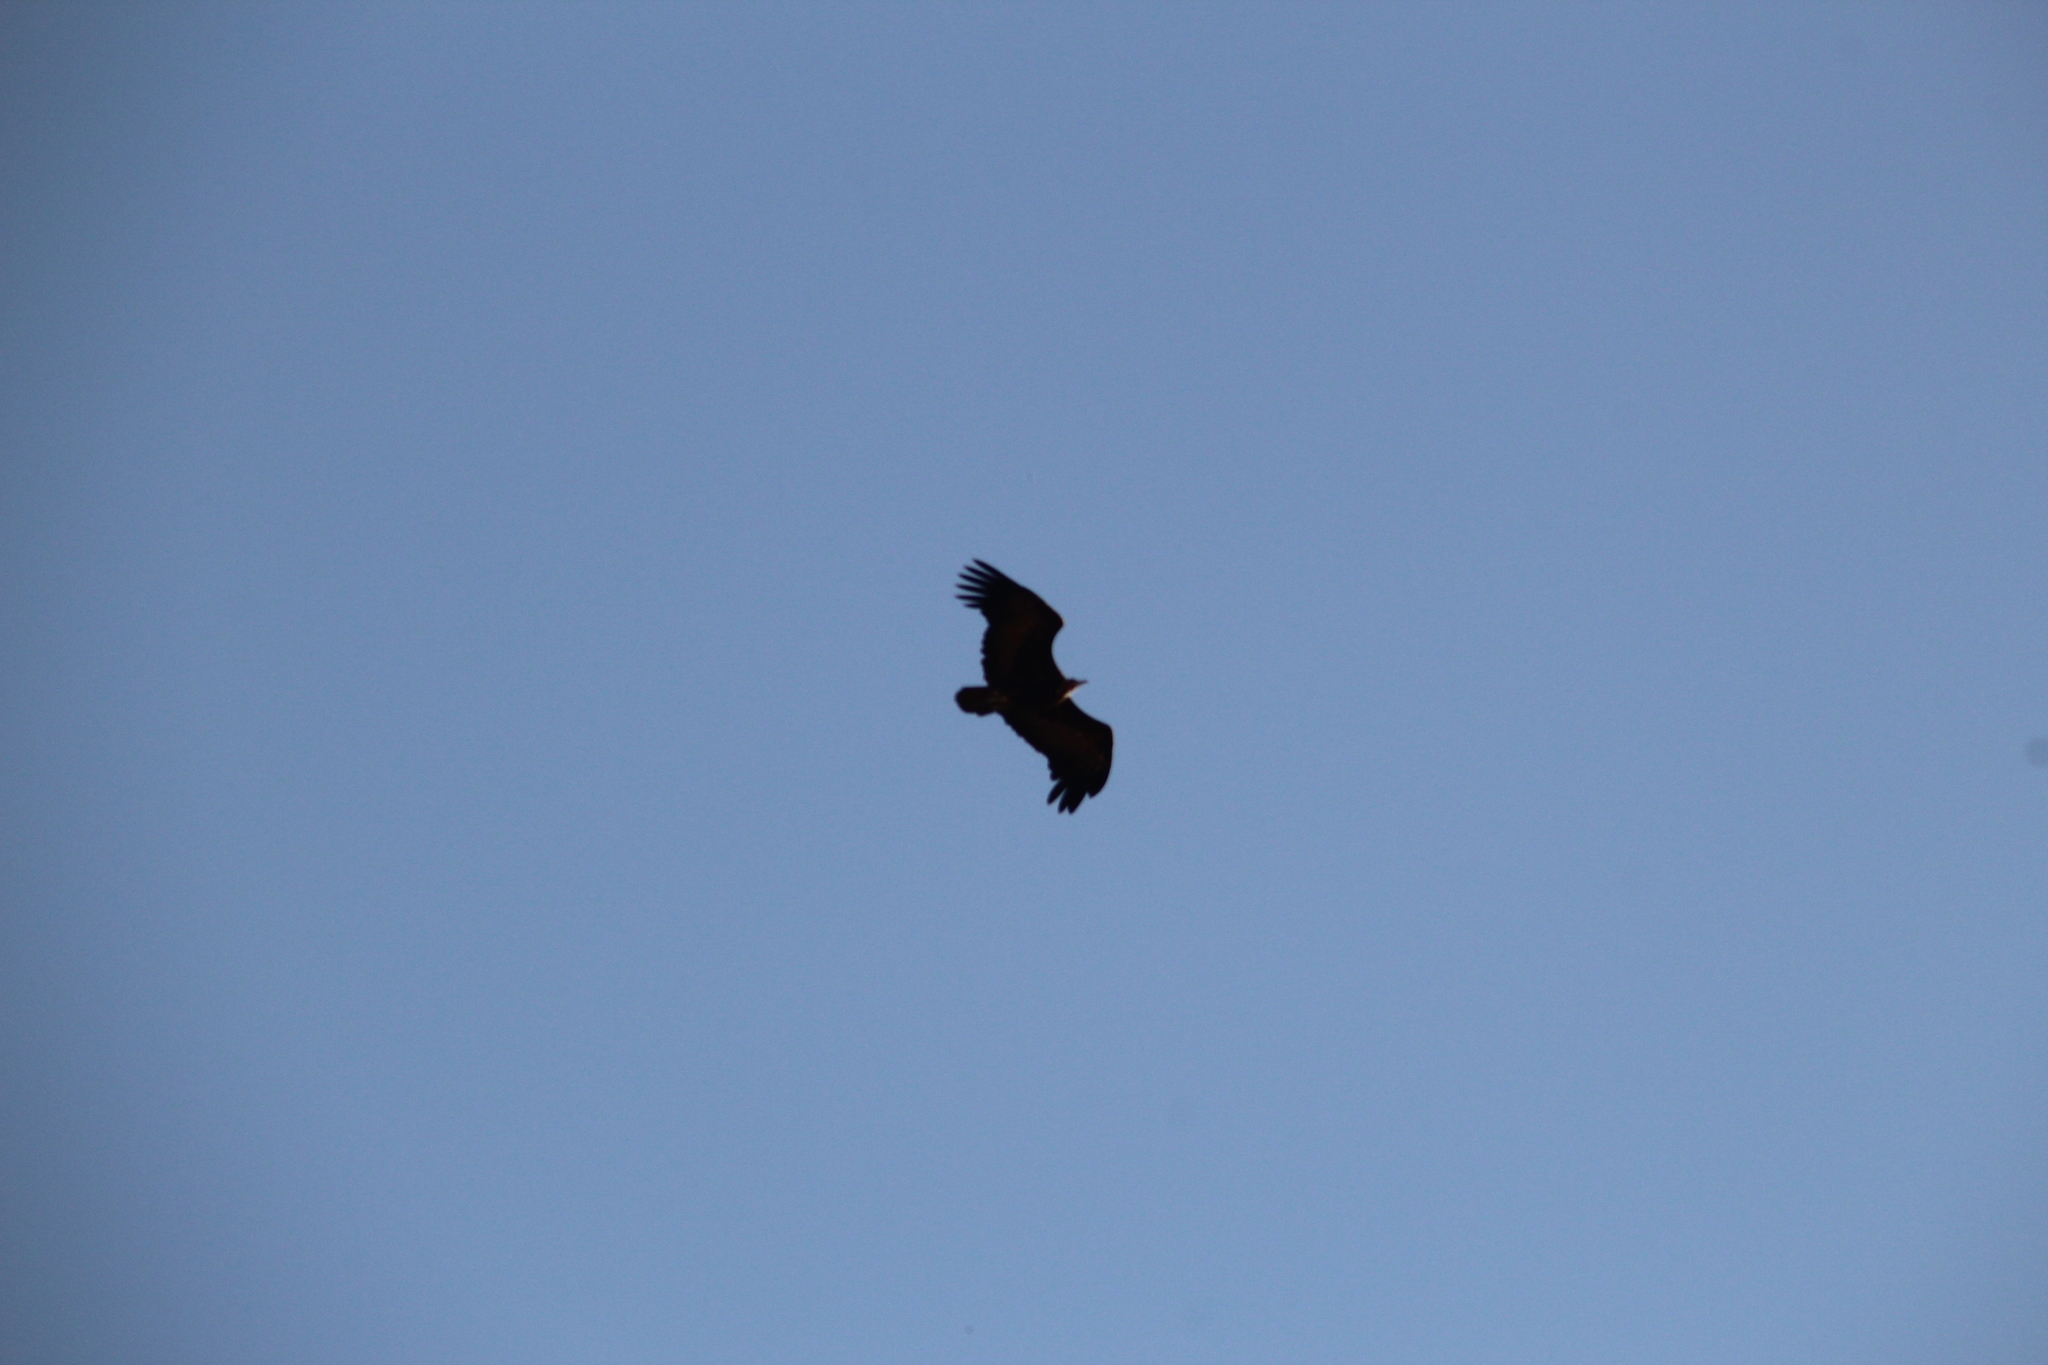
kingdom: Animalia
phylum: Chordata
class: Aves
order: Accipitriformes
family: Accipitridae
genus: Necrosyrtes
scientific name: Necrosyrtes monachus
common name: Hooded vulture
